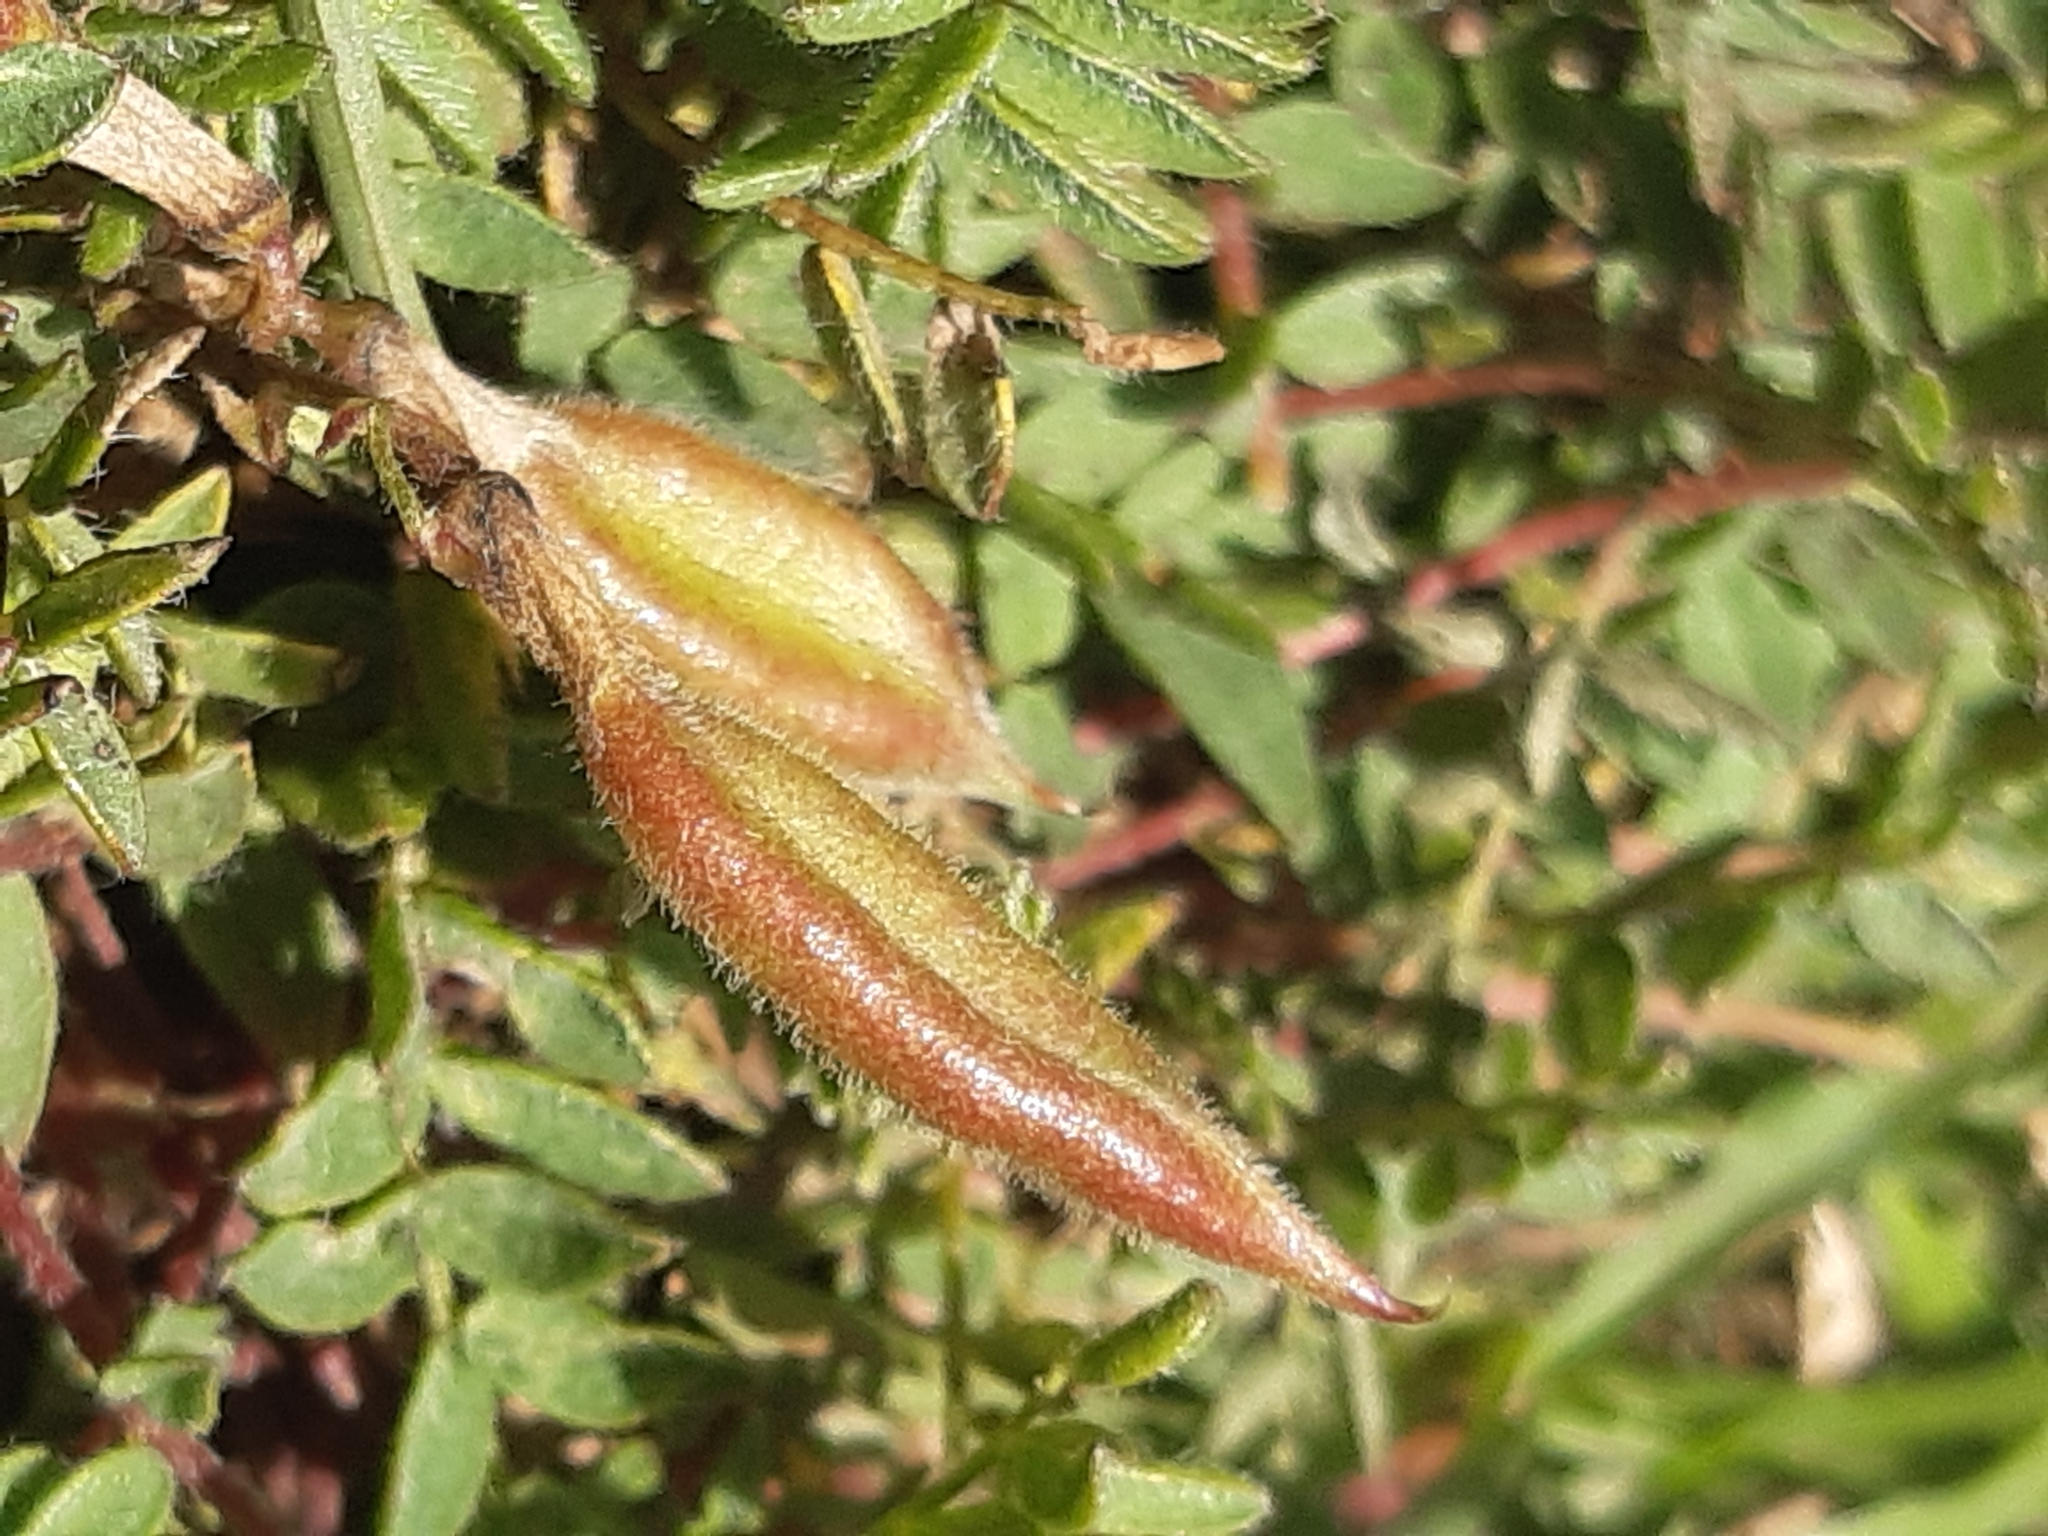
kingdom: Plantae
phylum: Tracheophyta
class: Magnoliopsida
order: Fabales
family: Fabaceae
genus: Oxytropis
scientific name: Oxytropis montana
